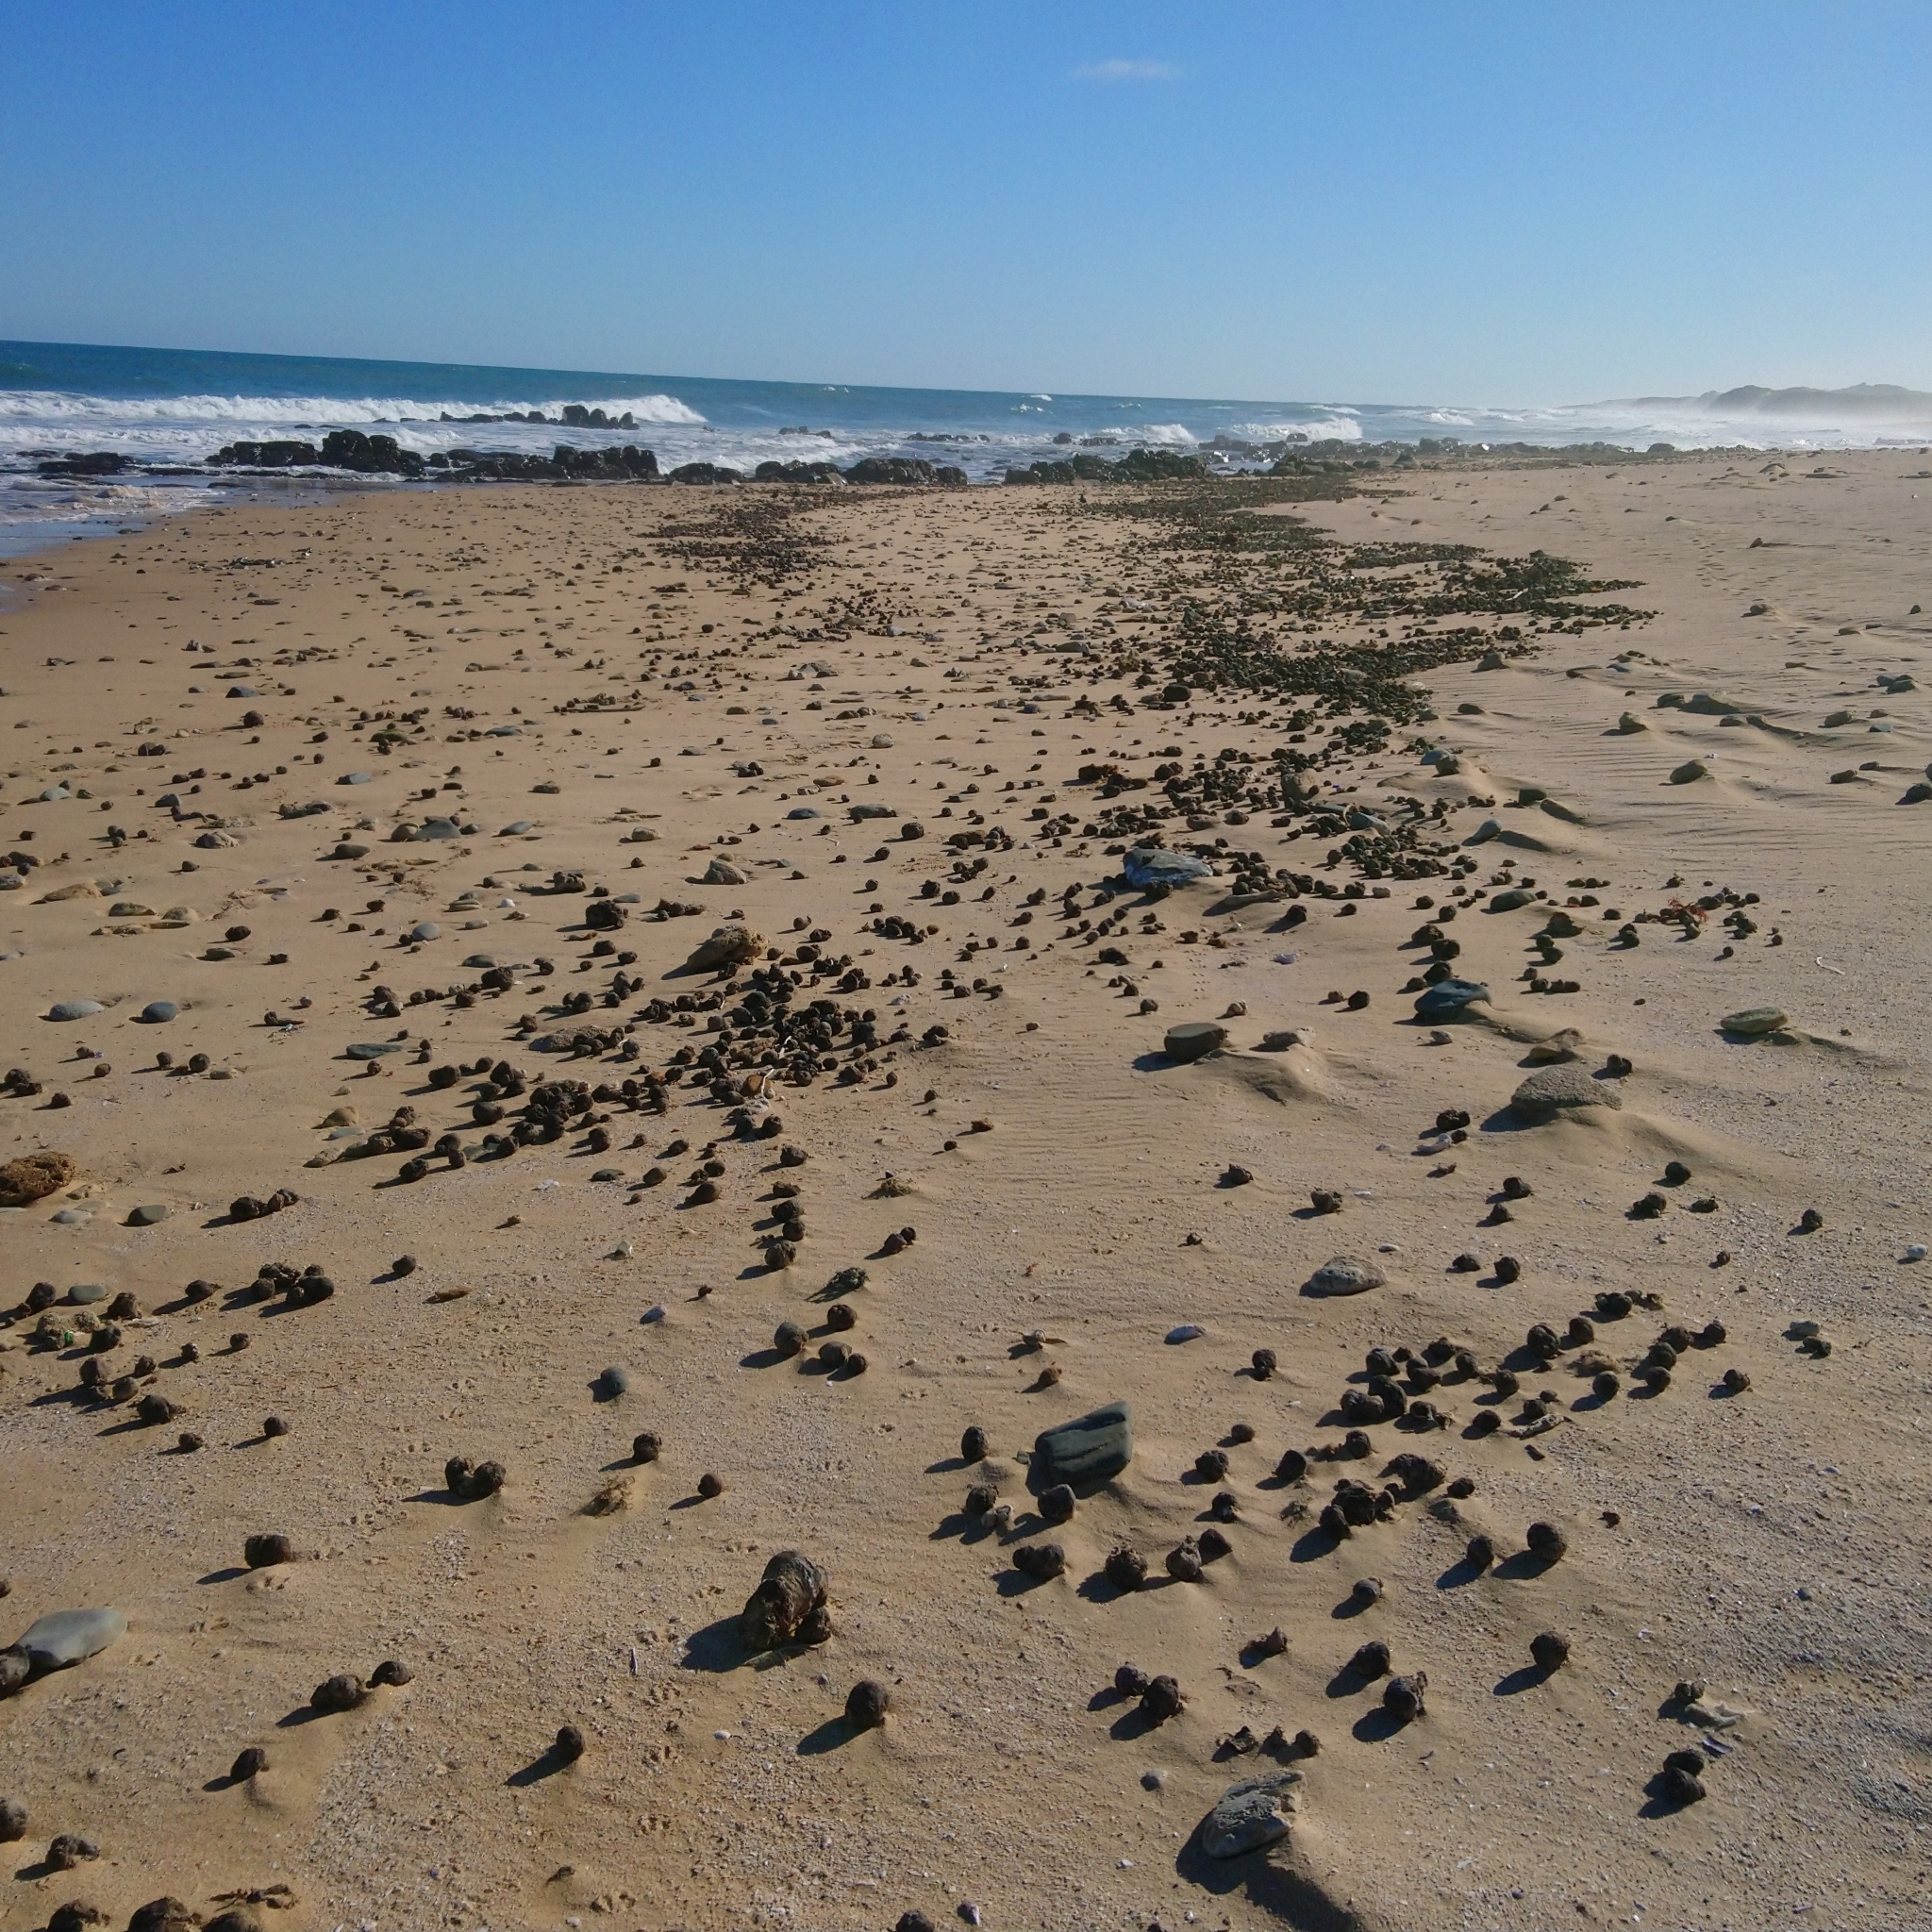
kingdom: Animalia
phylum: Chordata
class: Ascidiacea
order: Stolidobranchia
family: Pyuridae
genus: Pyura
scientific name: Pyura stolonifera
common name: Red bait
